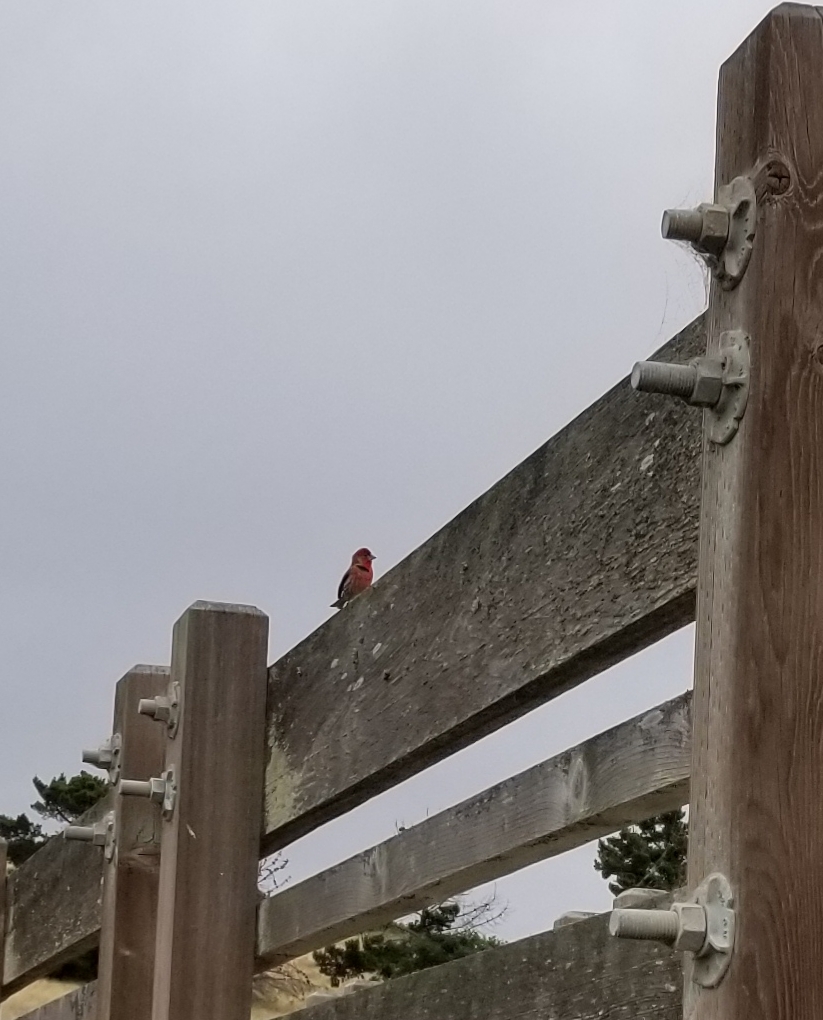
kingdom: Animalia
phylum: Chordata
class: Aves
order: Passeriformes
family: Fringillidae
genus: Haemorhous
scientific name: Haemorhous mexicanus
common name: House finch
